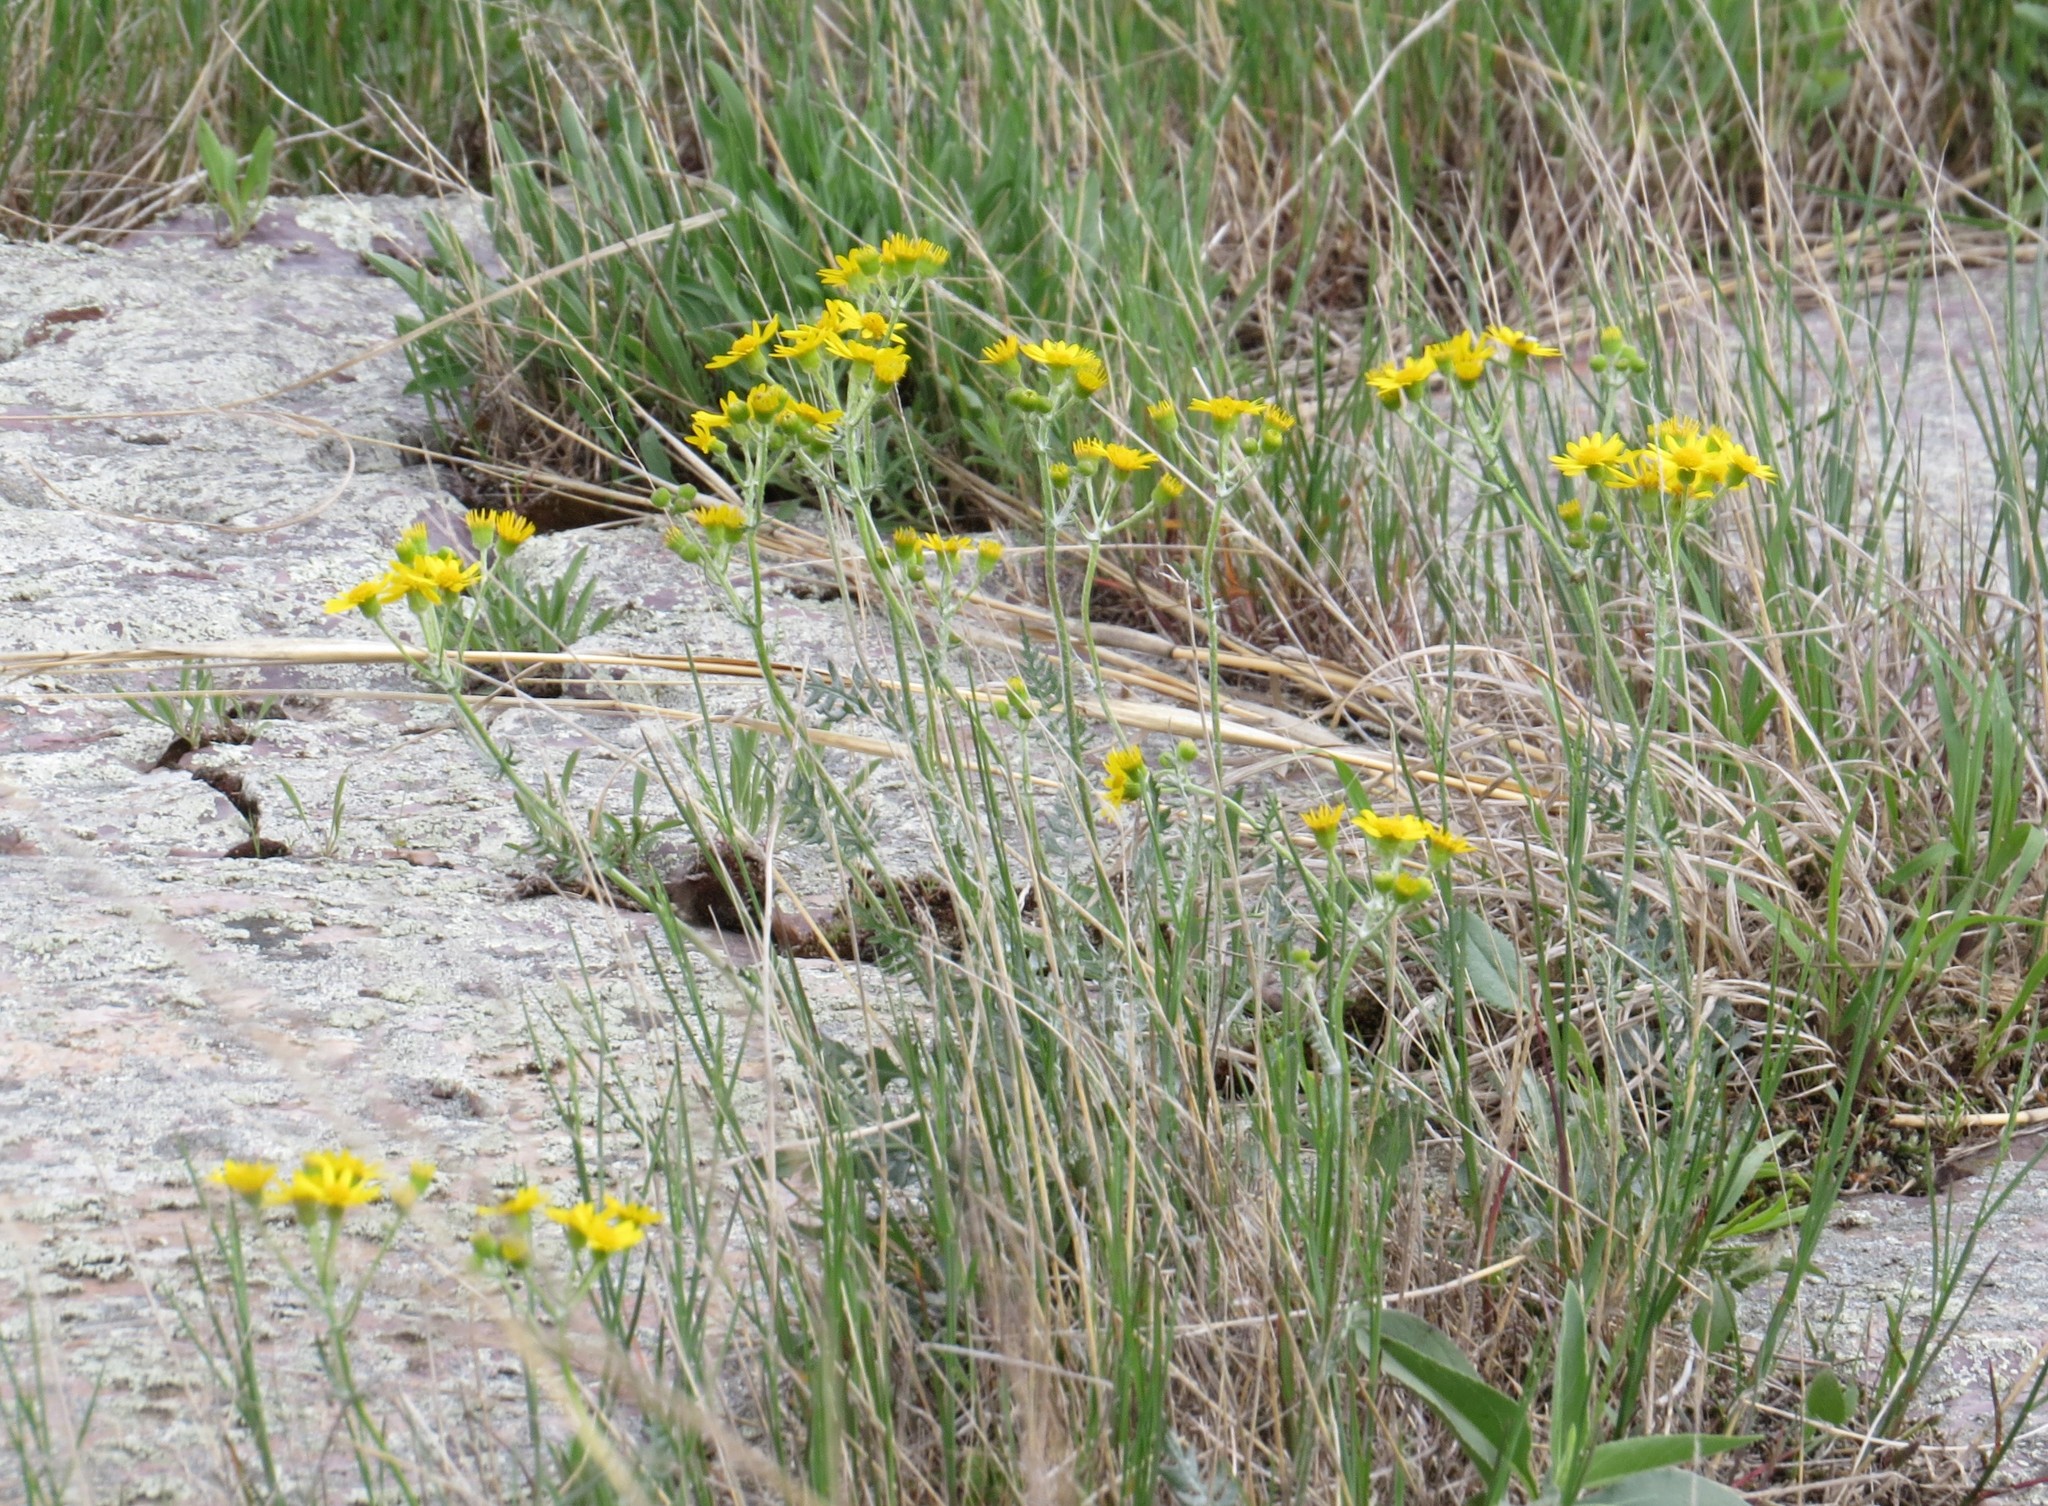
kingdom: Plantae
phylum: Tracheophyta
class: Magnoliopsida
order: Asterales
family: Asteraceae
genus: Packera
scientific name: Packera plattensis
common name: Prairie groundsel
